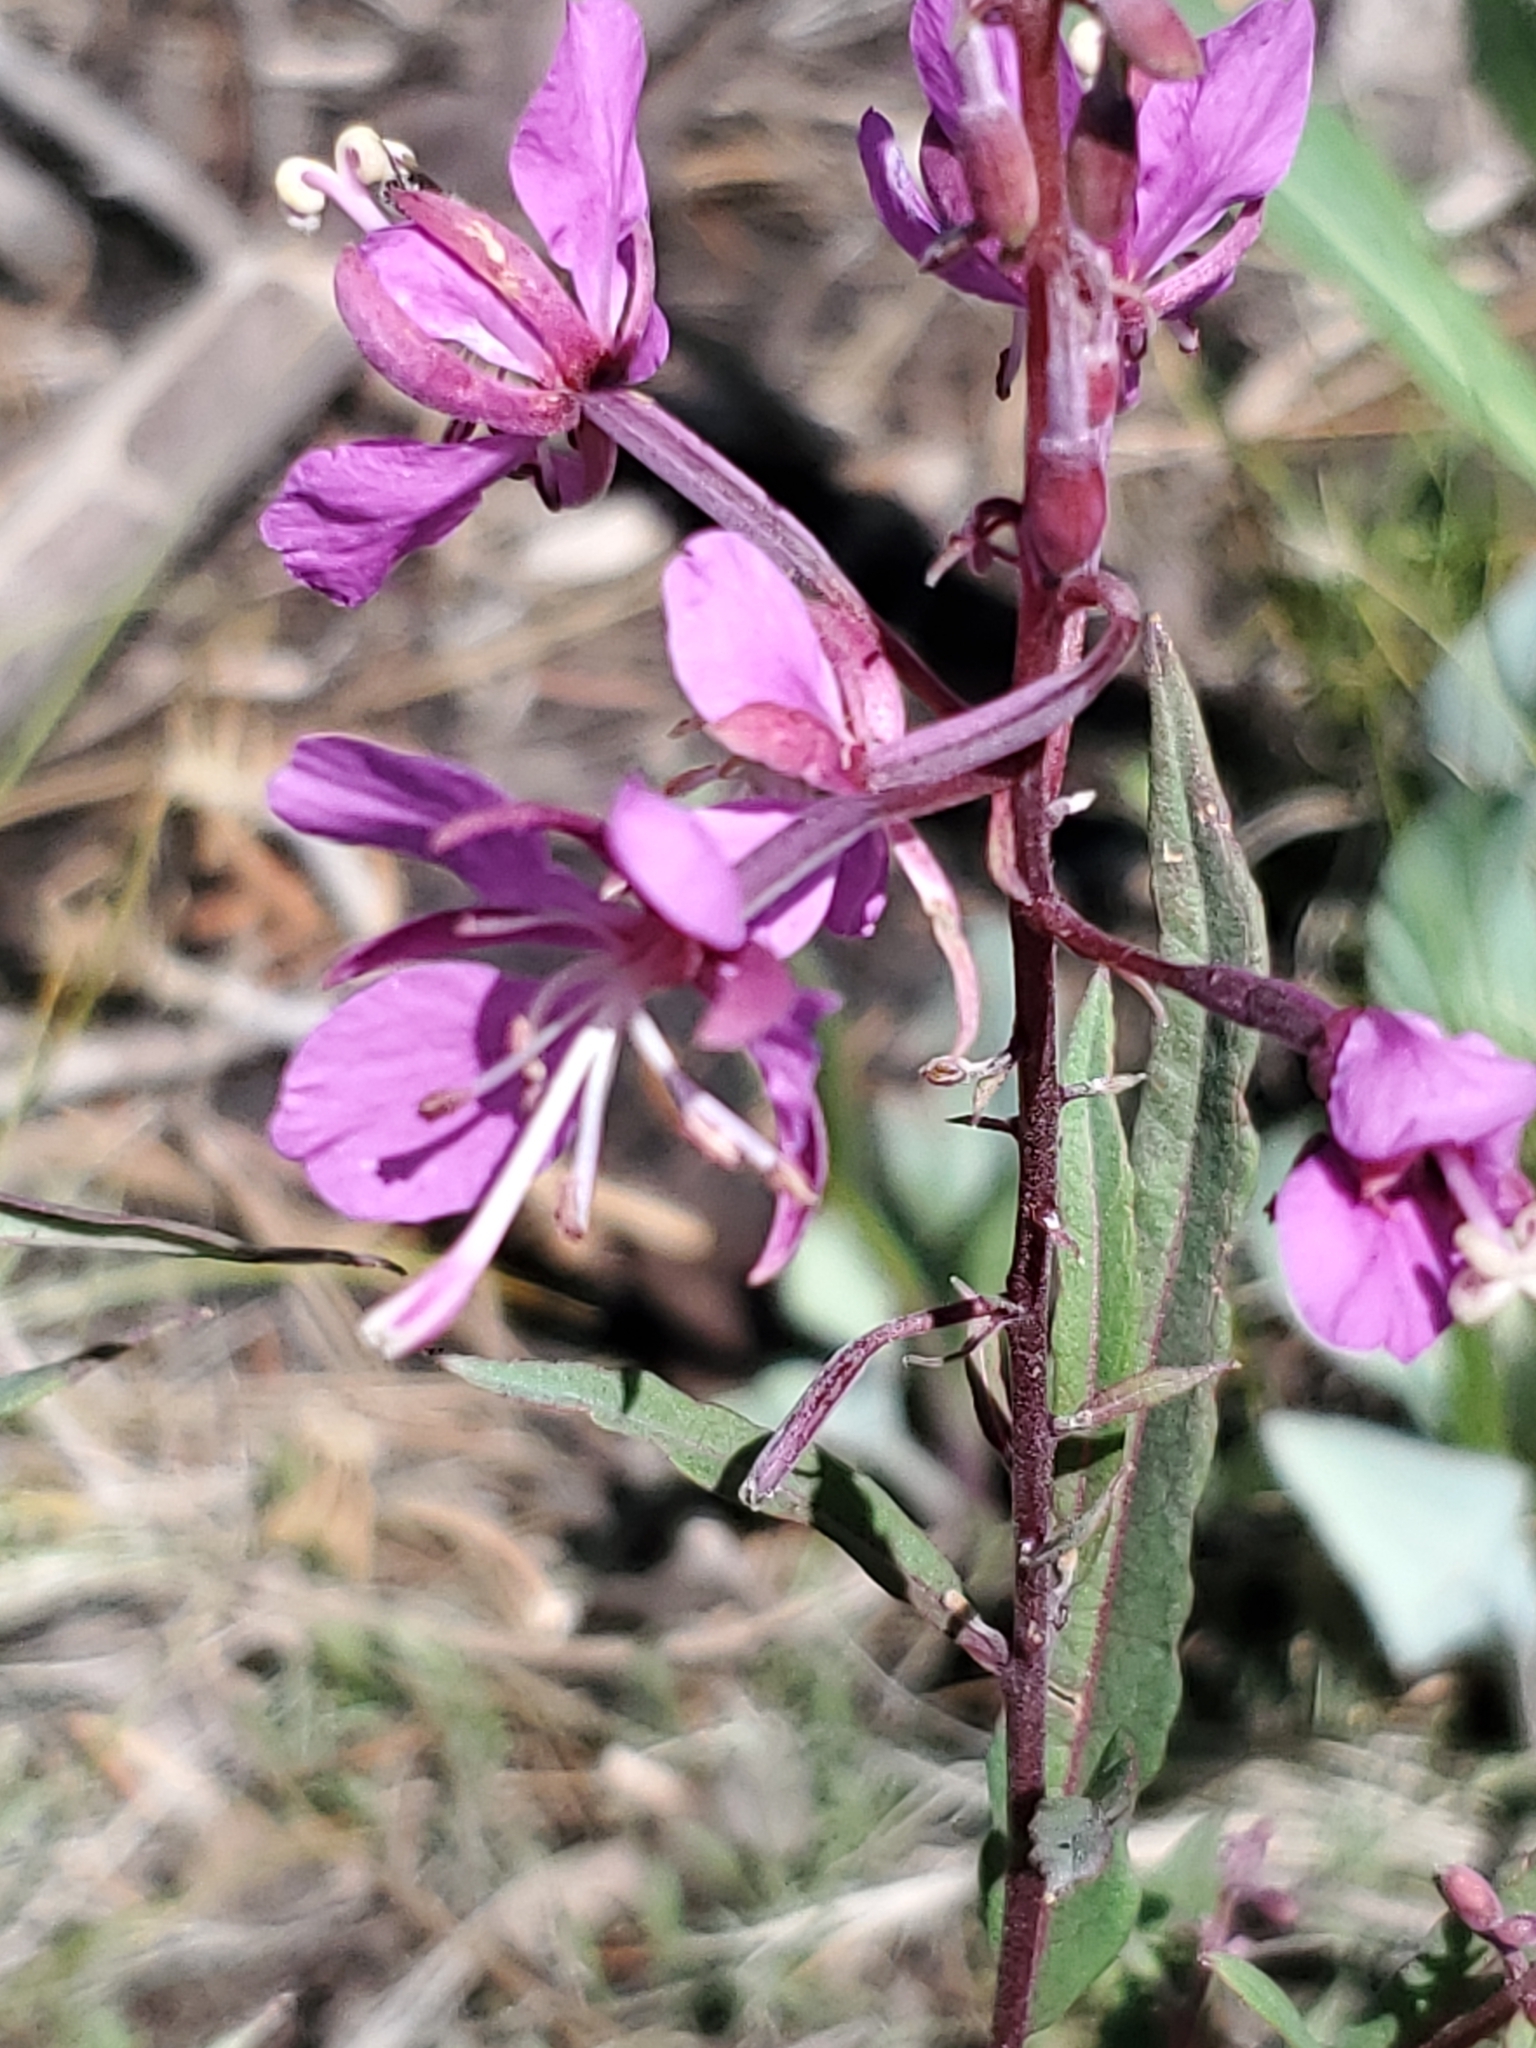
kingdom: Plantae
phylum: Tracheophyta
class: Magnoliopsida
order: Myrtales
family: Onagraceae
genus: Chamaenerion
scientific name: Chamaenerion angustifolium
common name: Fireweed
